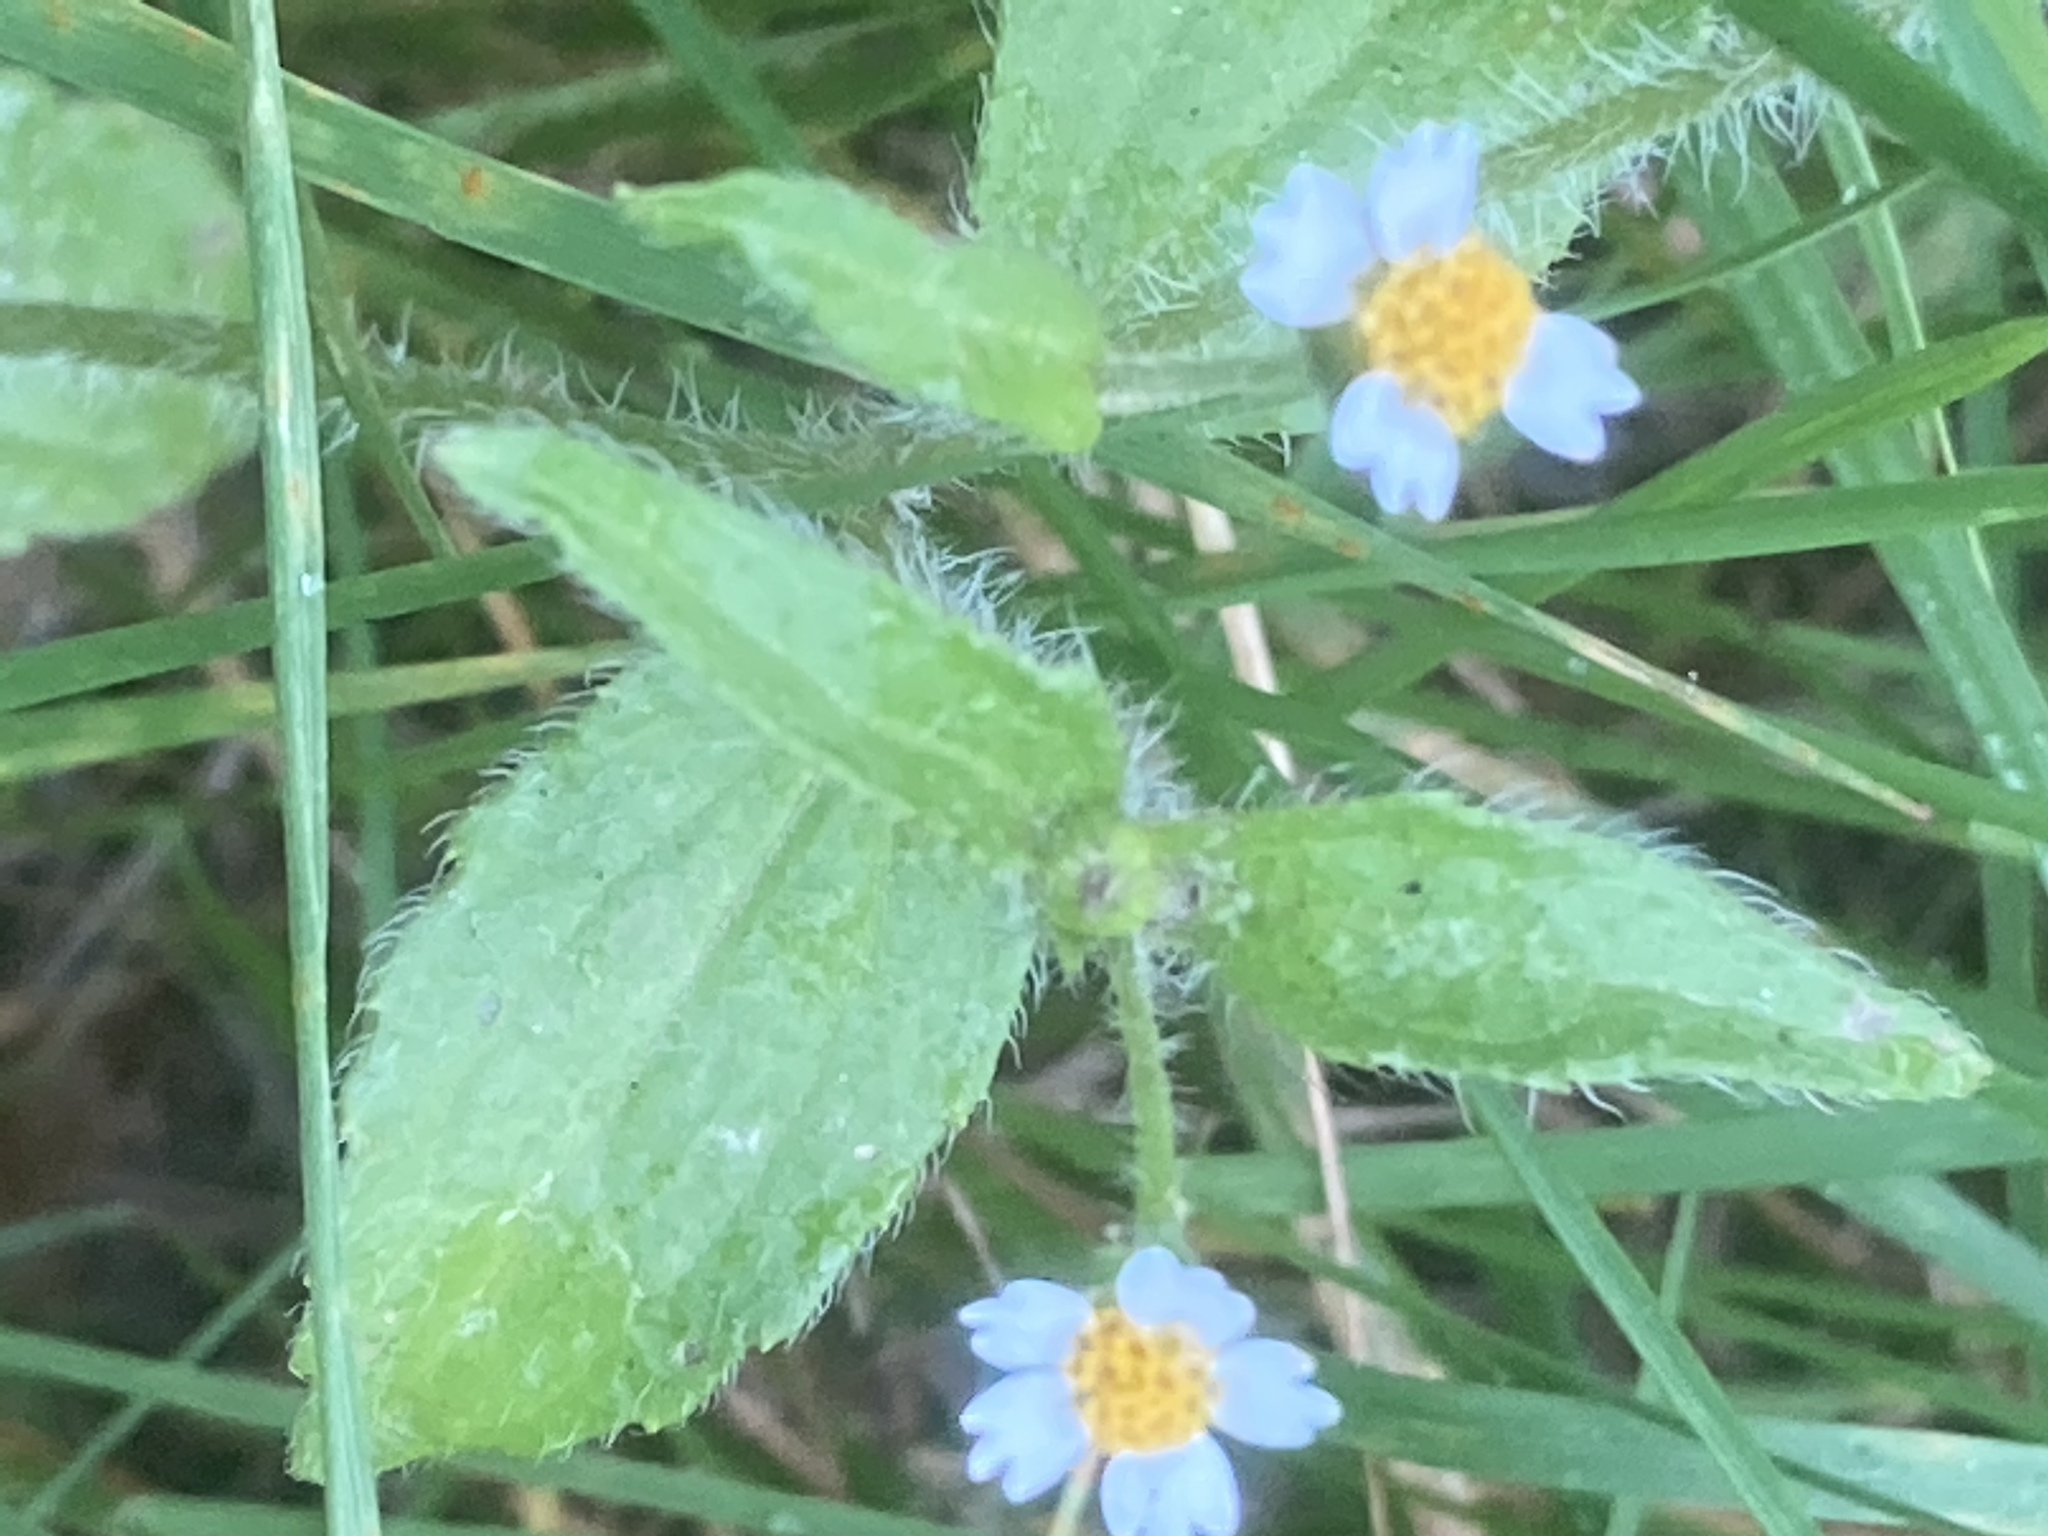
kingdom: Plantae
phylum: Tracheophyta
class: Magnoliopsida
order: Asterales
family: Asteraceae
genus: Galinsoga
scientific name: Galinsoga quadriradiata
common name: Shaggy soldier
